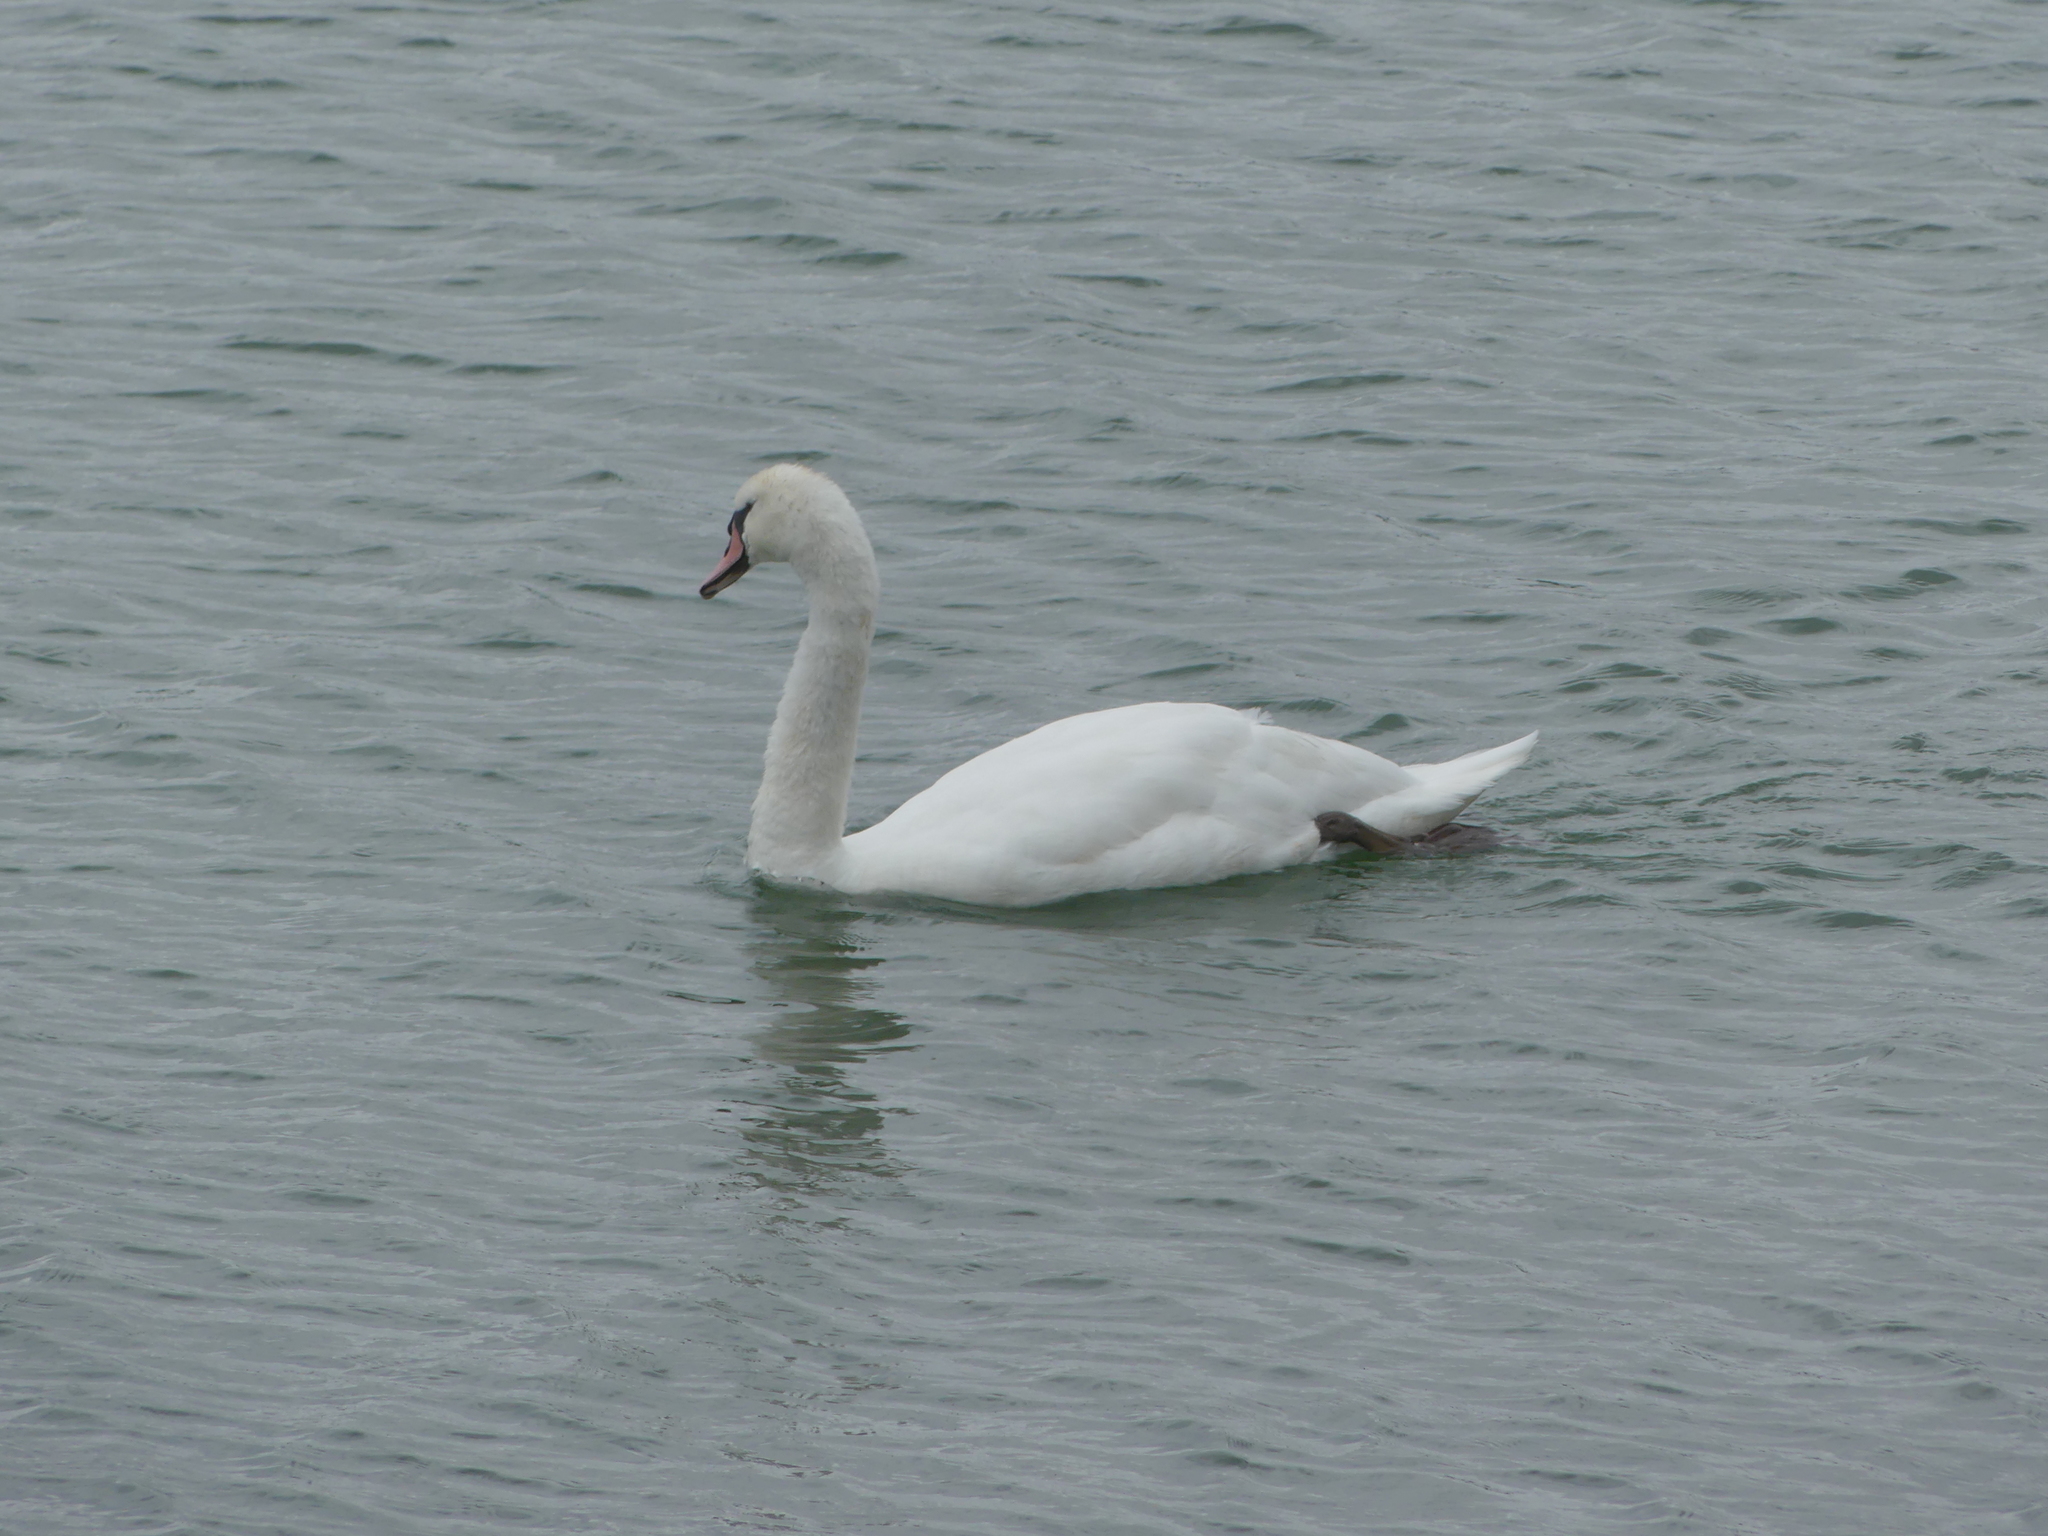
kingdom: Animalia
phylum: Chordata
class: Aves
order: Anseriformes
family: Anatidae
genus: Cygnus
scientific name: Cygnus olor
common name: Mute swan
